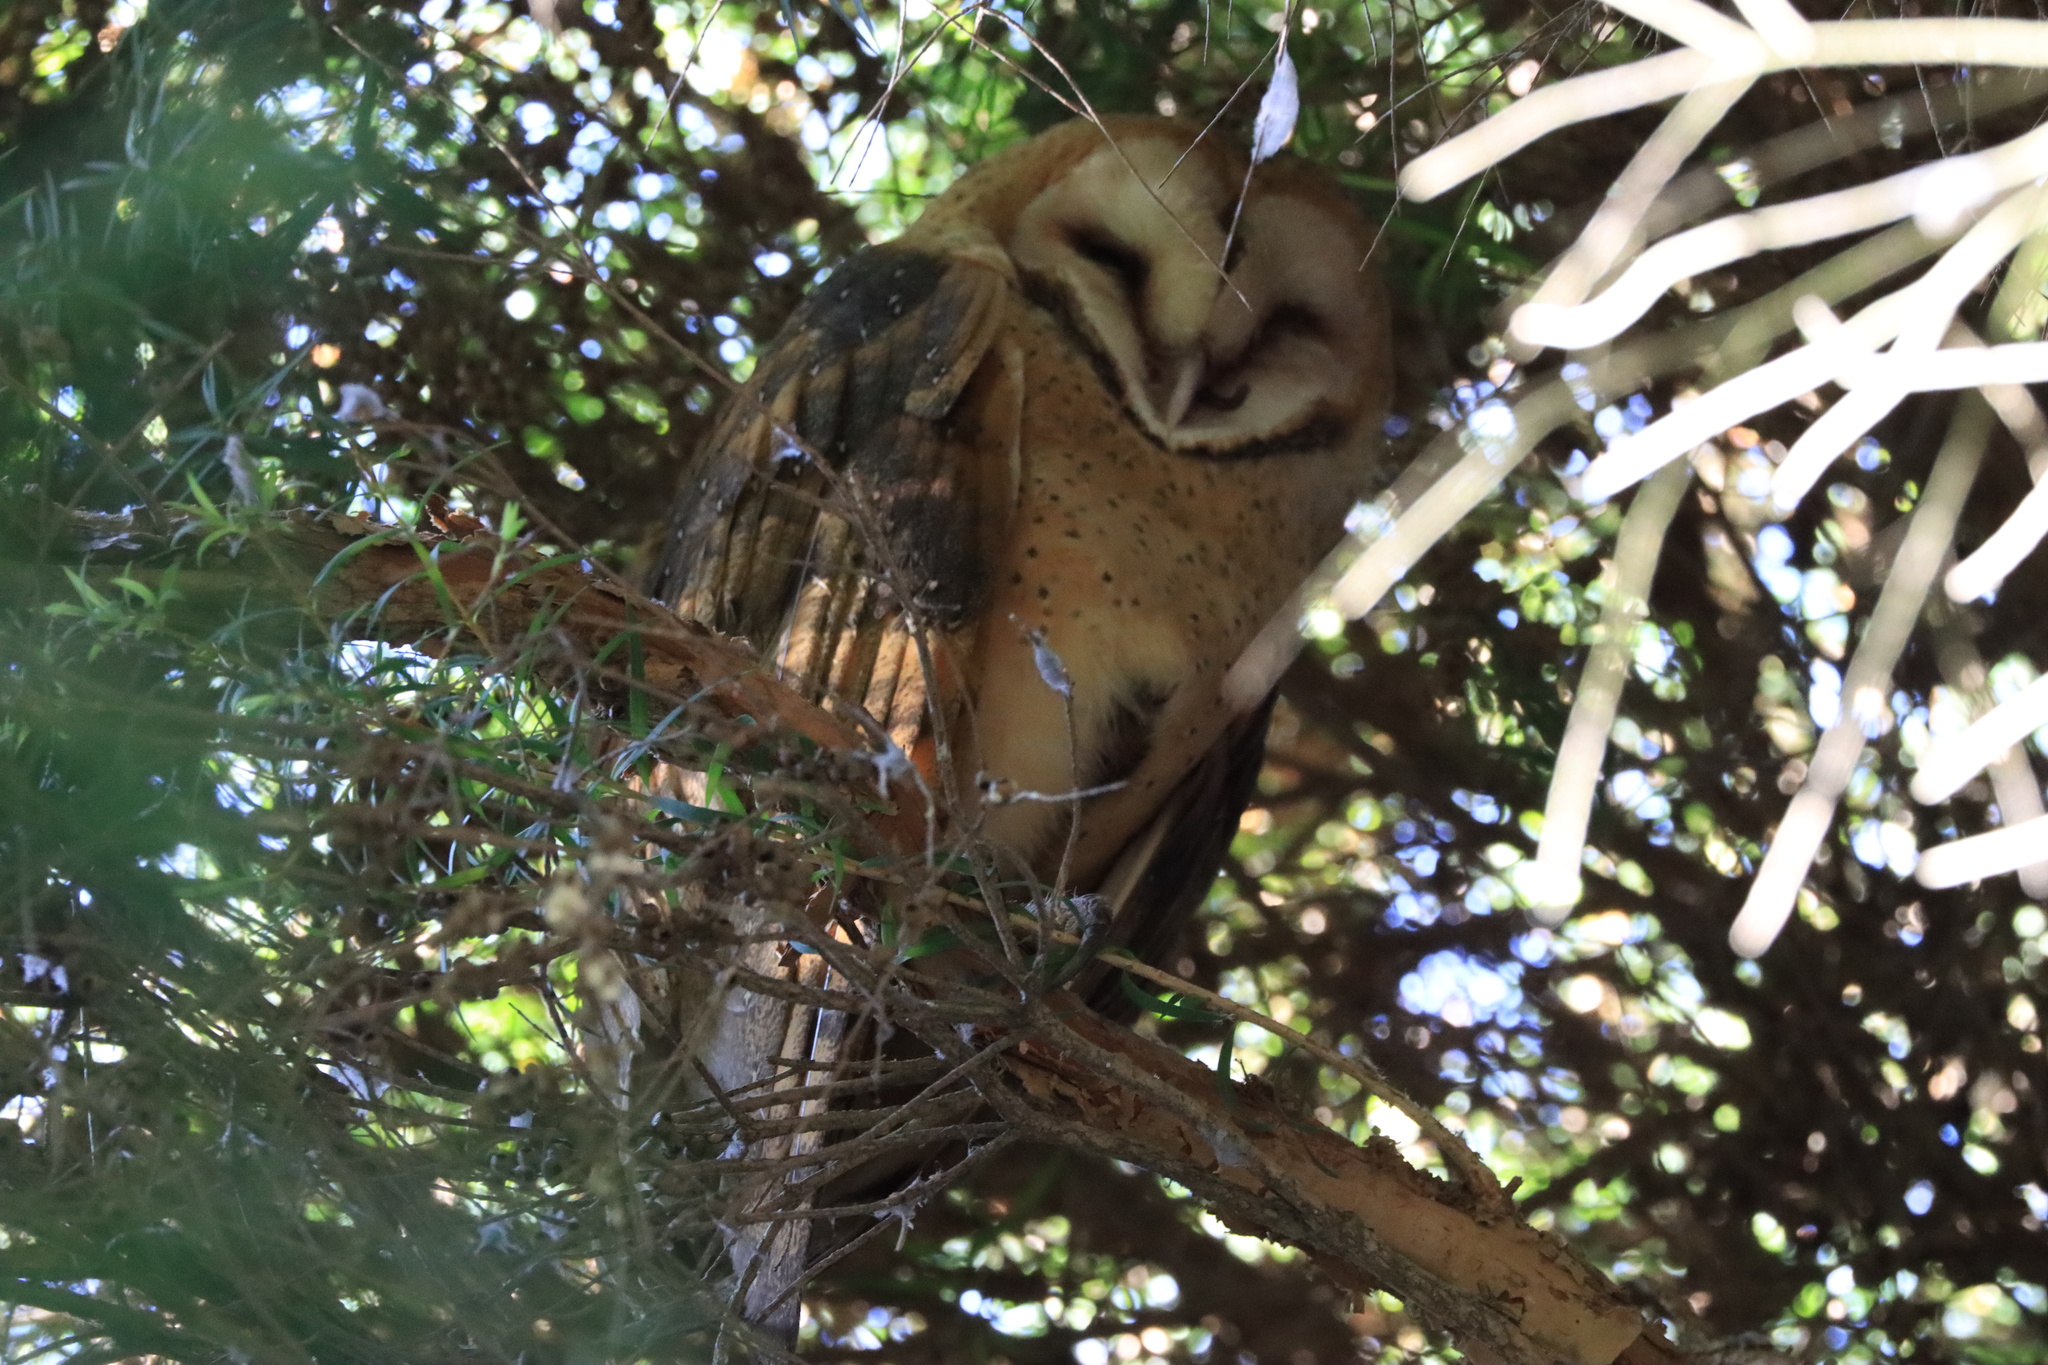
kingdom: Animalia
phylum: Chordata
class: Aves
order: Strigiformes
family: Tytonidae
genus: Tyto
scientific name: Tyto alba
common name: Barn owl
